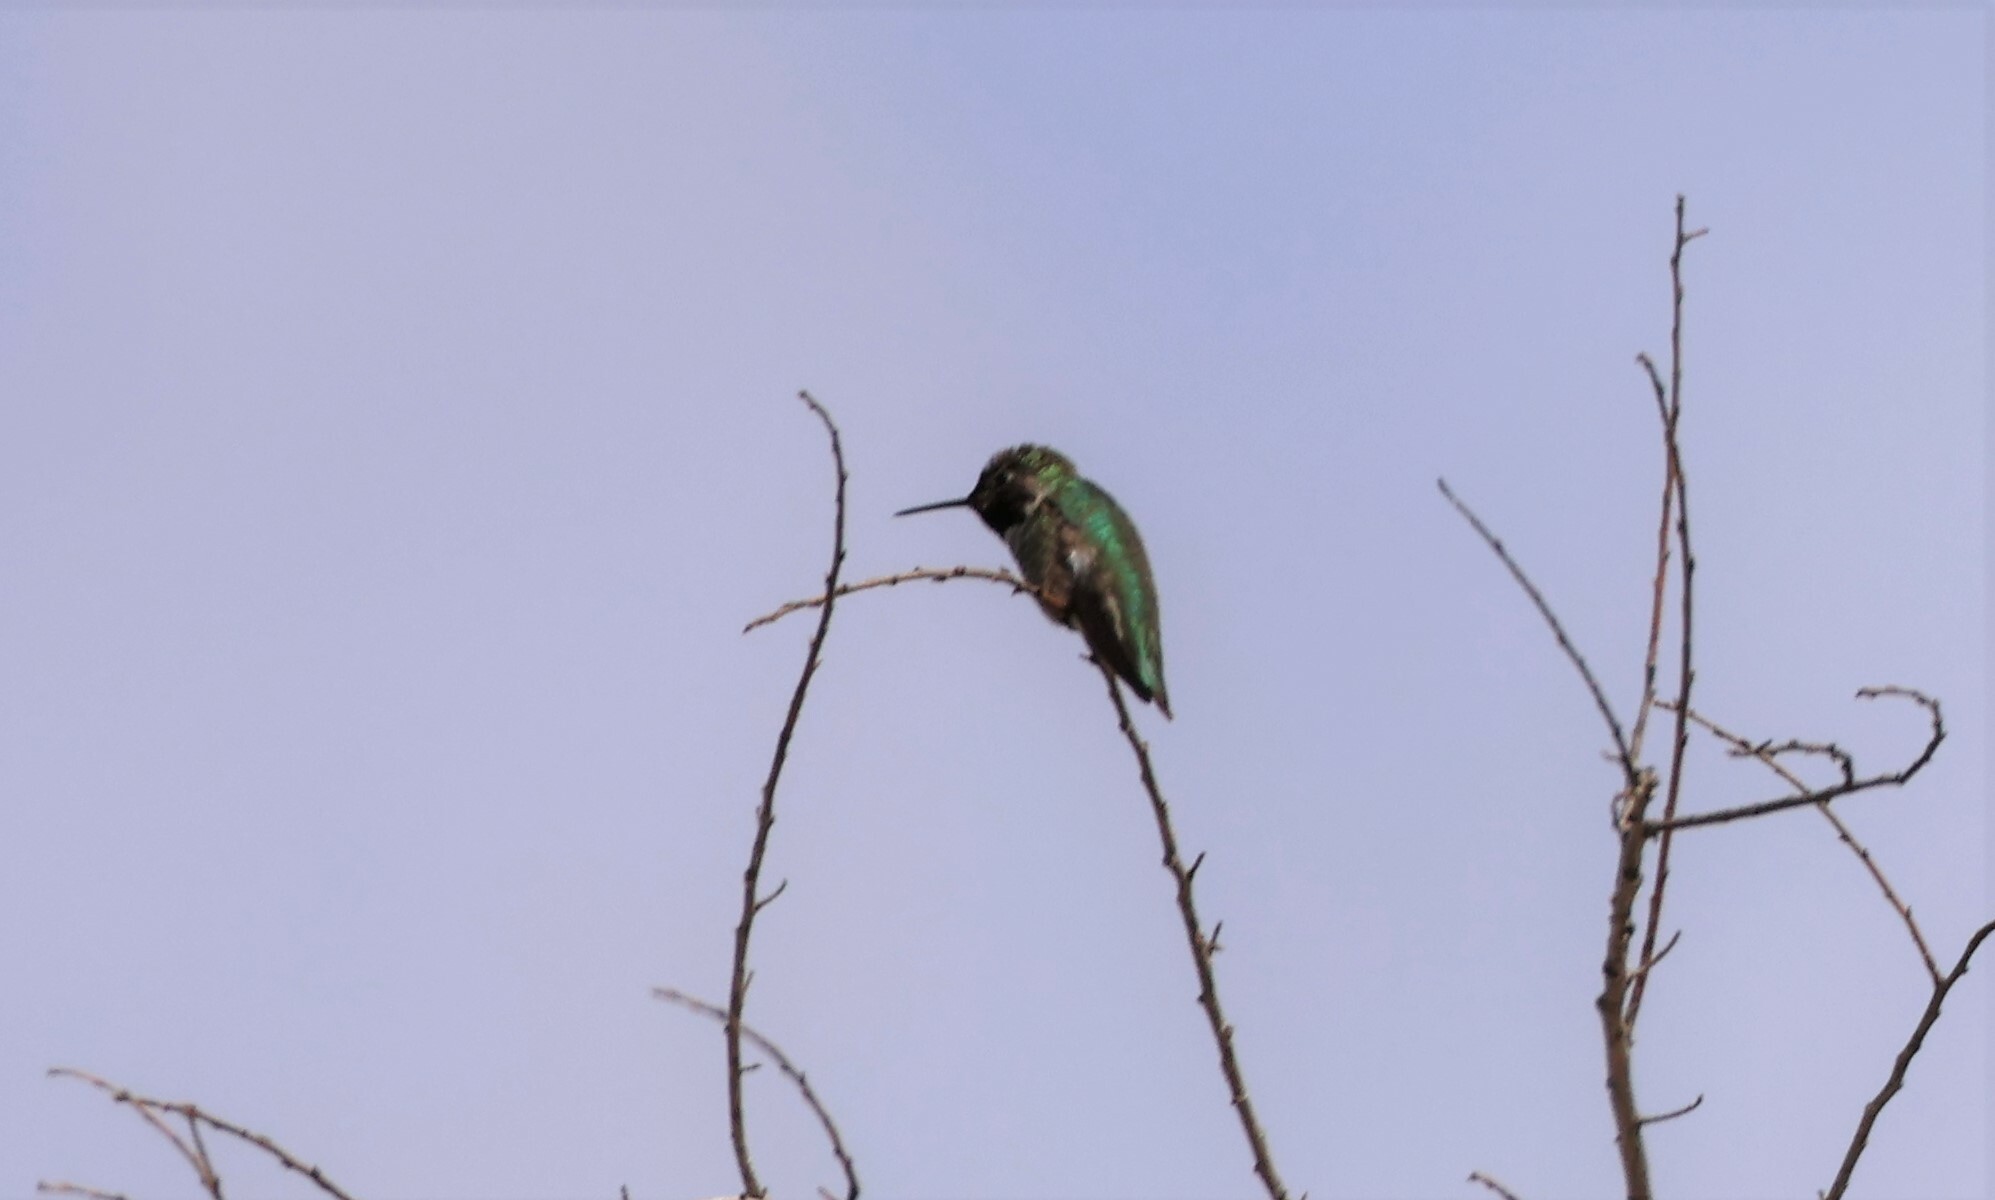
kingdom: Animalia
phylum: Chordata
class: Aves
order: Apodiformes
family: Trochilidae
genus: Calypte
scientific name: Calypte anna
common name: Anna's hummingbird
